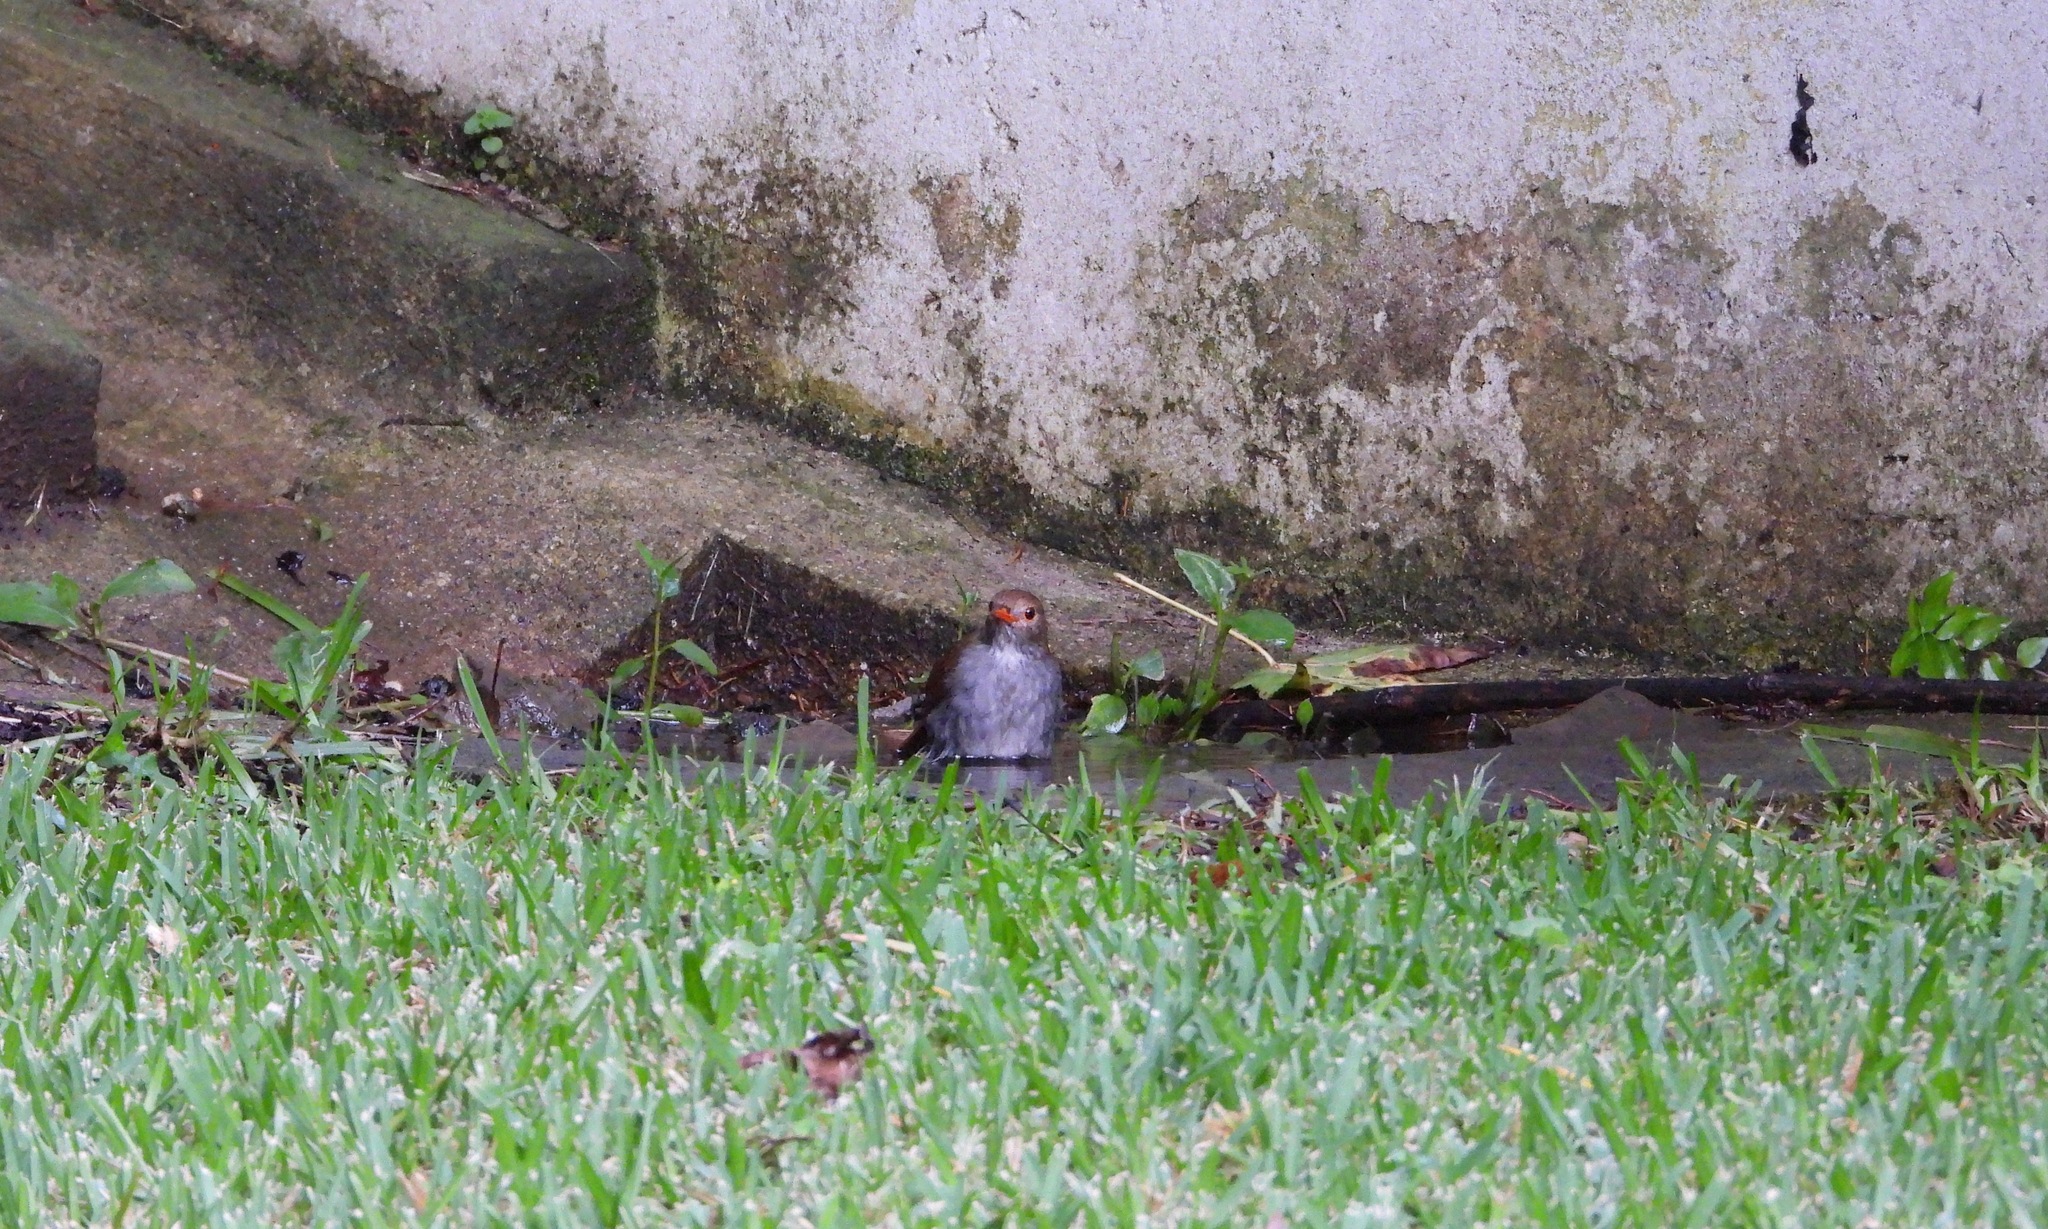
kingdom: Animalia
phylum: Chordata
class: Aves
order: Passeriformes
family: Turdidae
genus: Catharus
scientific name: Catharus aurantiirostris
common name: Orange-billed nightingale-thrush
